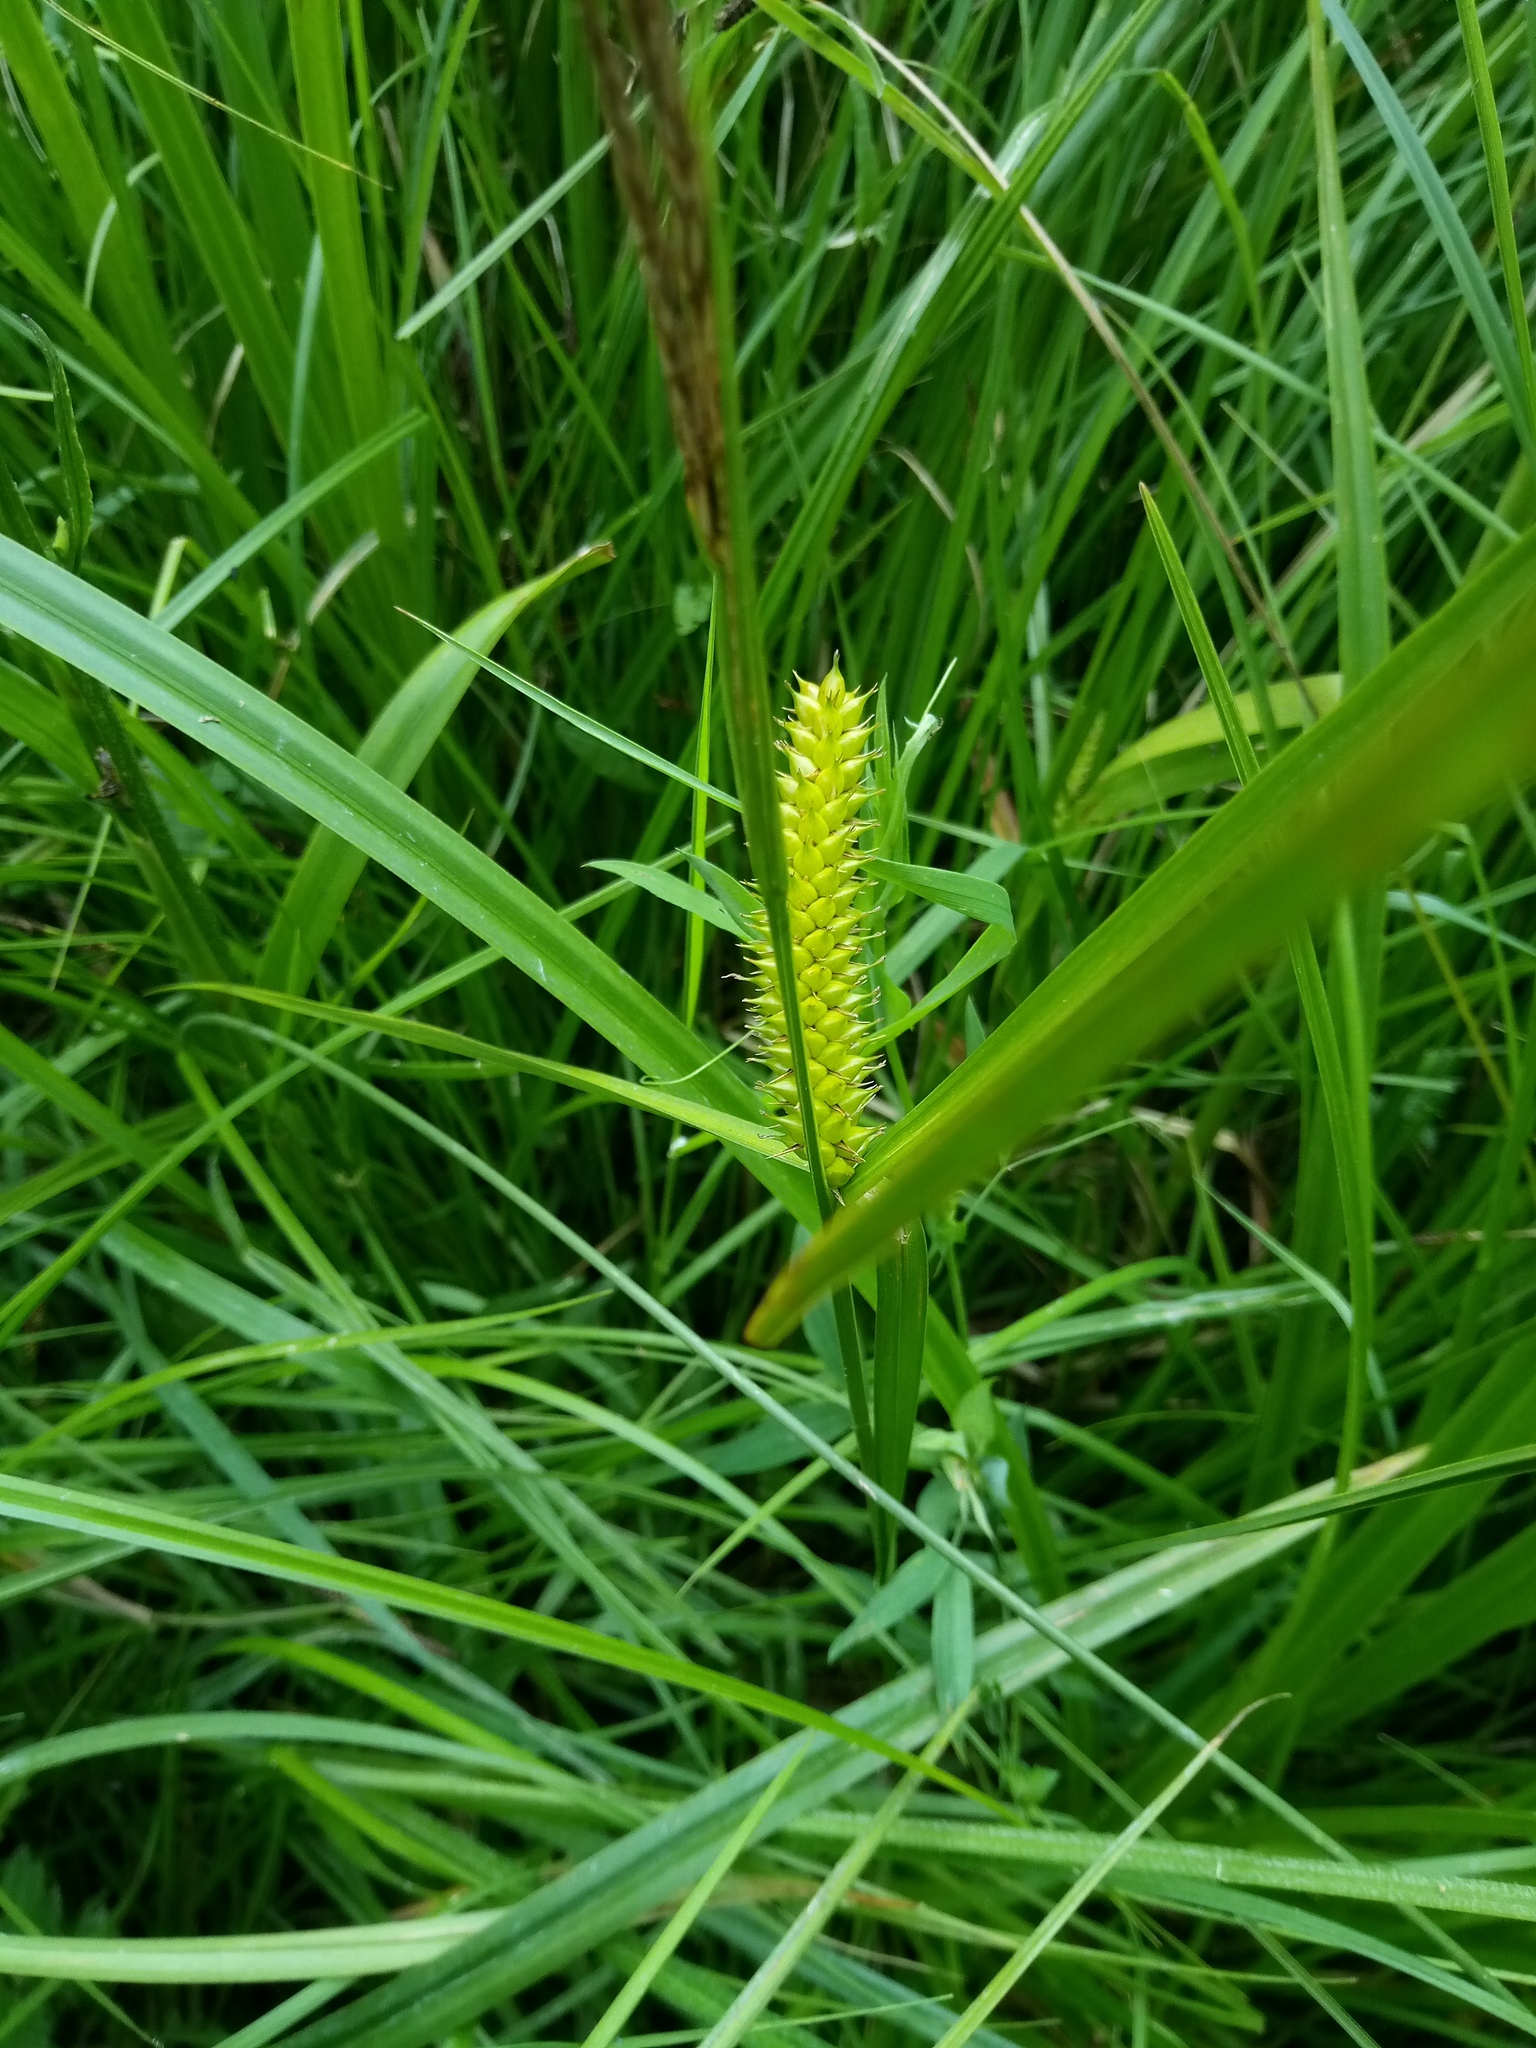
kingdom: Plantae
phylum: Tracheophyta
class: Liliopsida
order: Poales
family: Cyperaceae
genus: Carex
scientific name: Carex vesicaria
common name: Bladder-sedge
